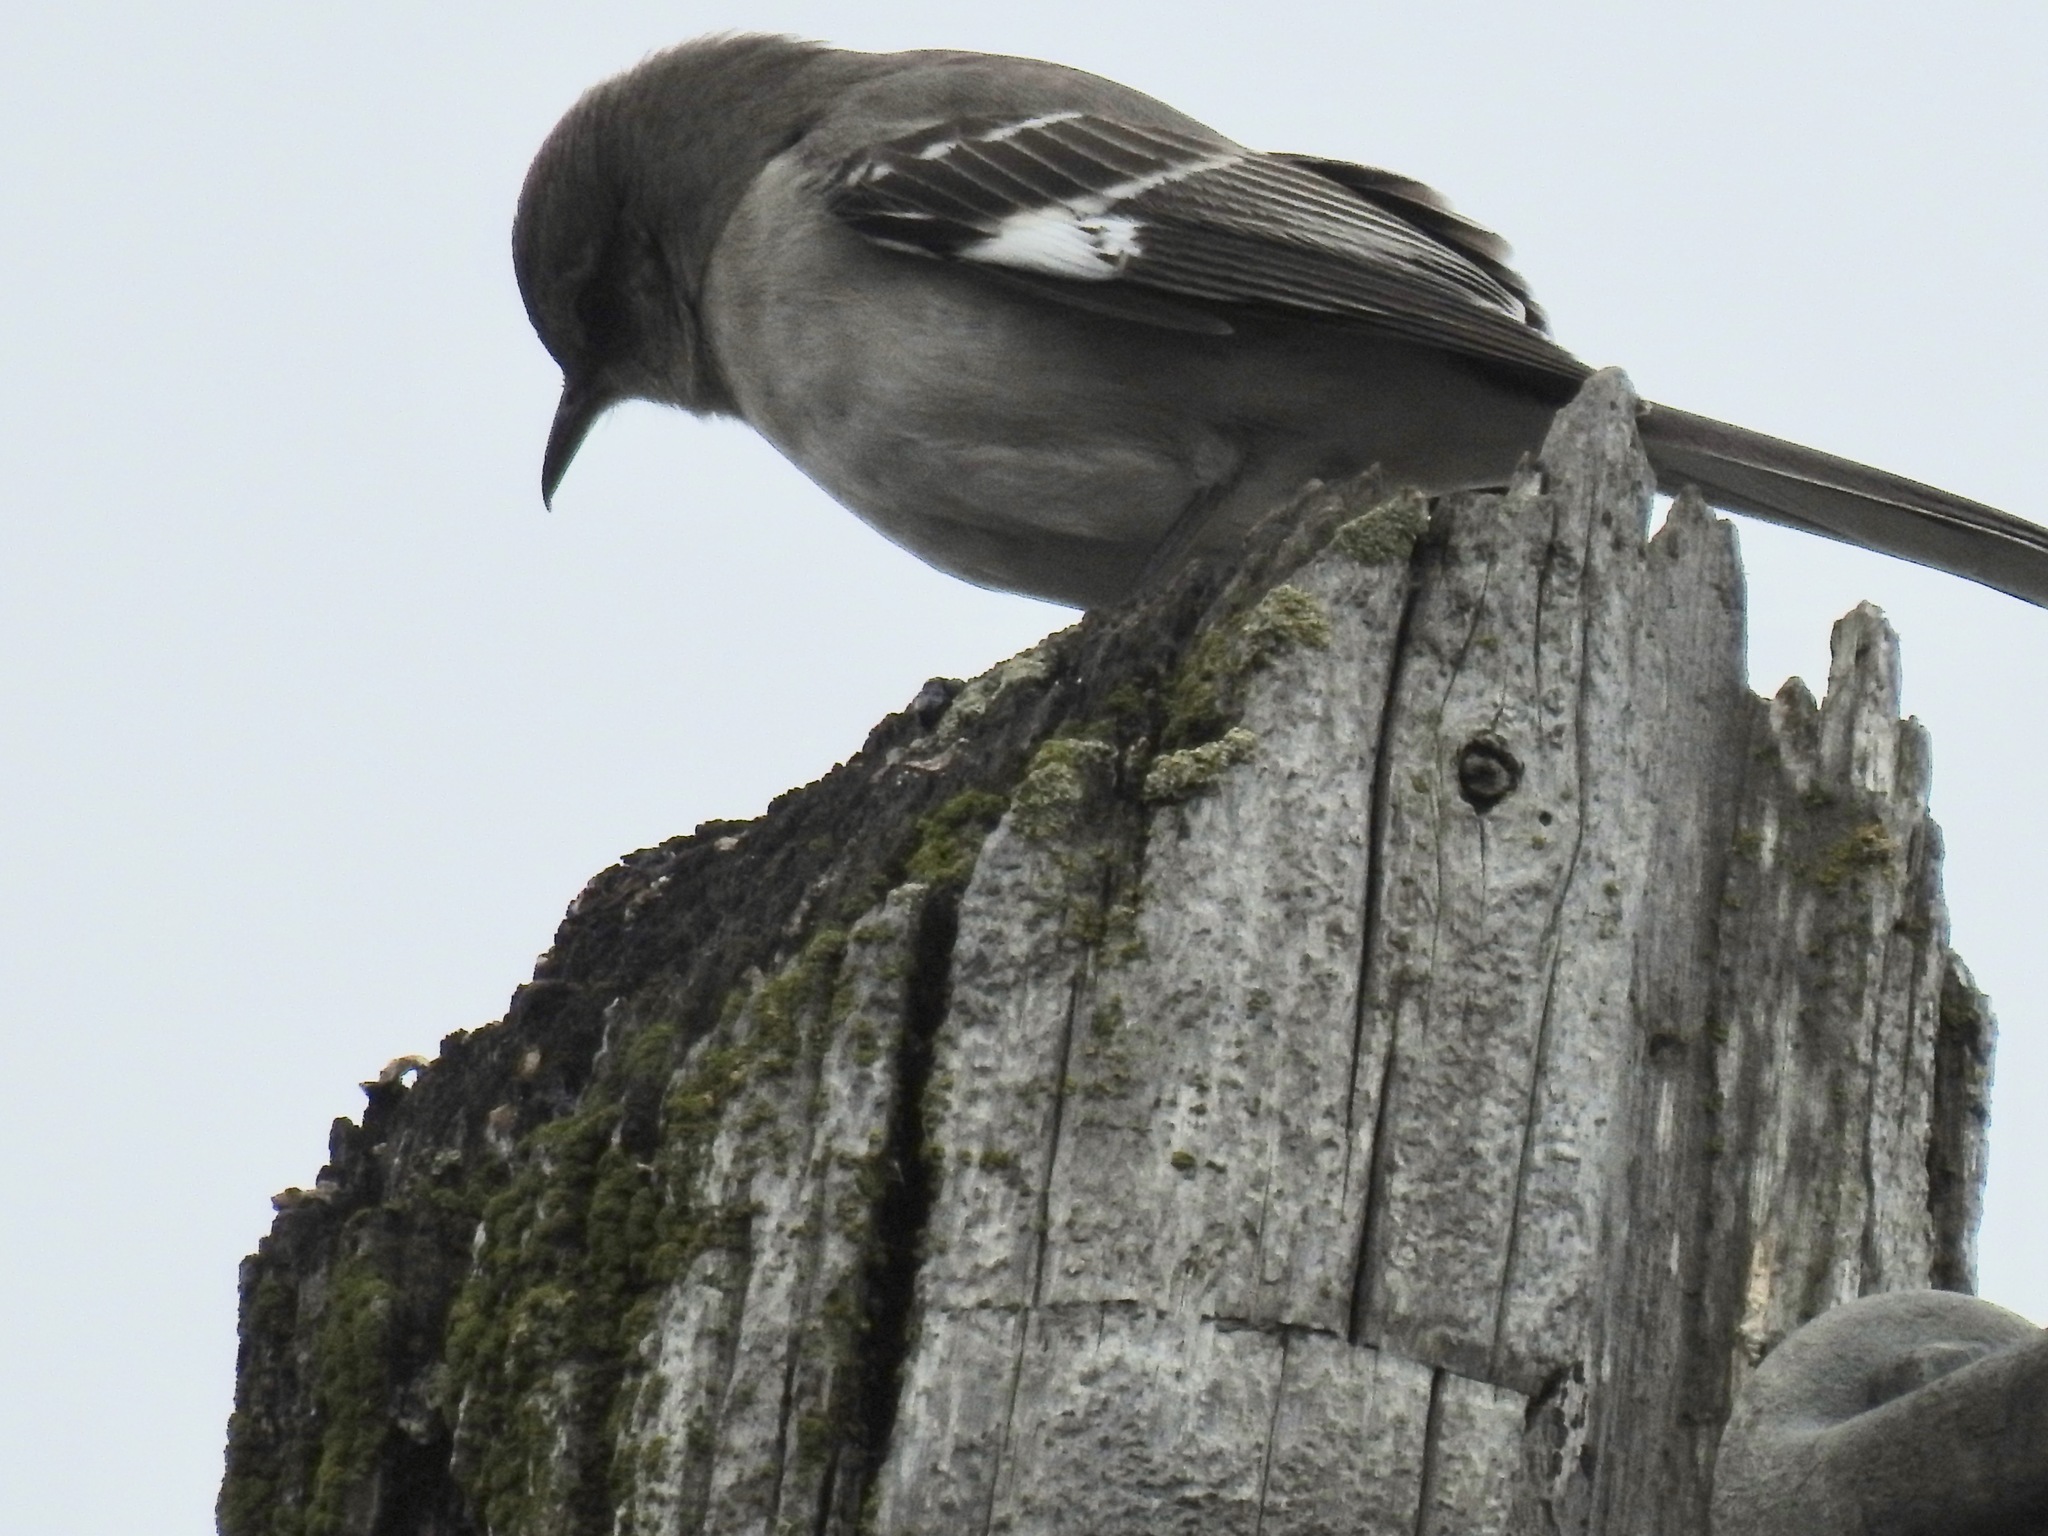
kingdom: Animalia
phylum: Chordata
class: Aves
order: Passeriformes
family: Mimidae
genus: Mimus
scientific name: Mimus polyglottos
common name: Northern mockingbird
